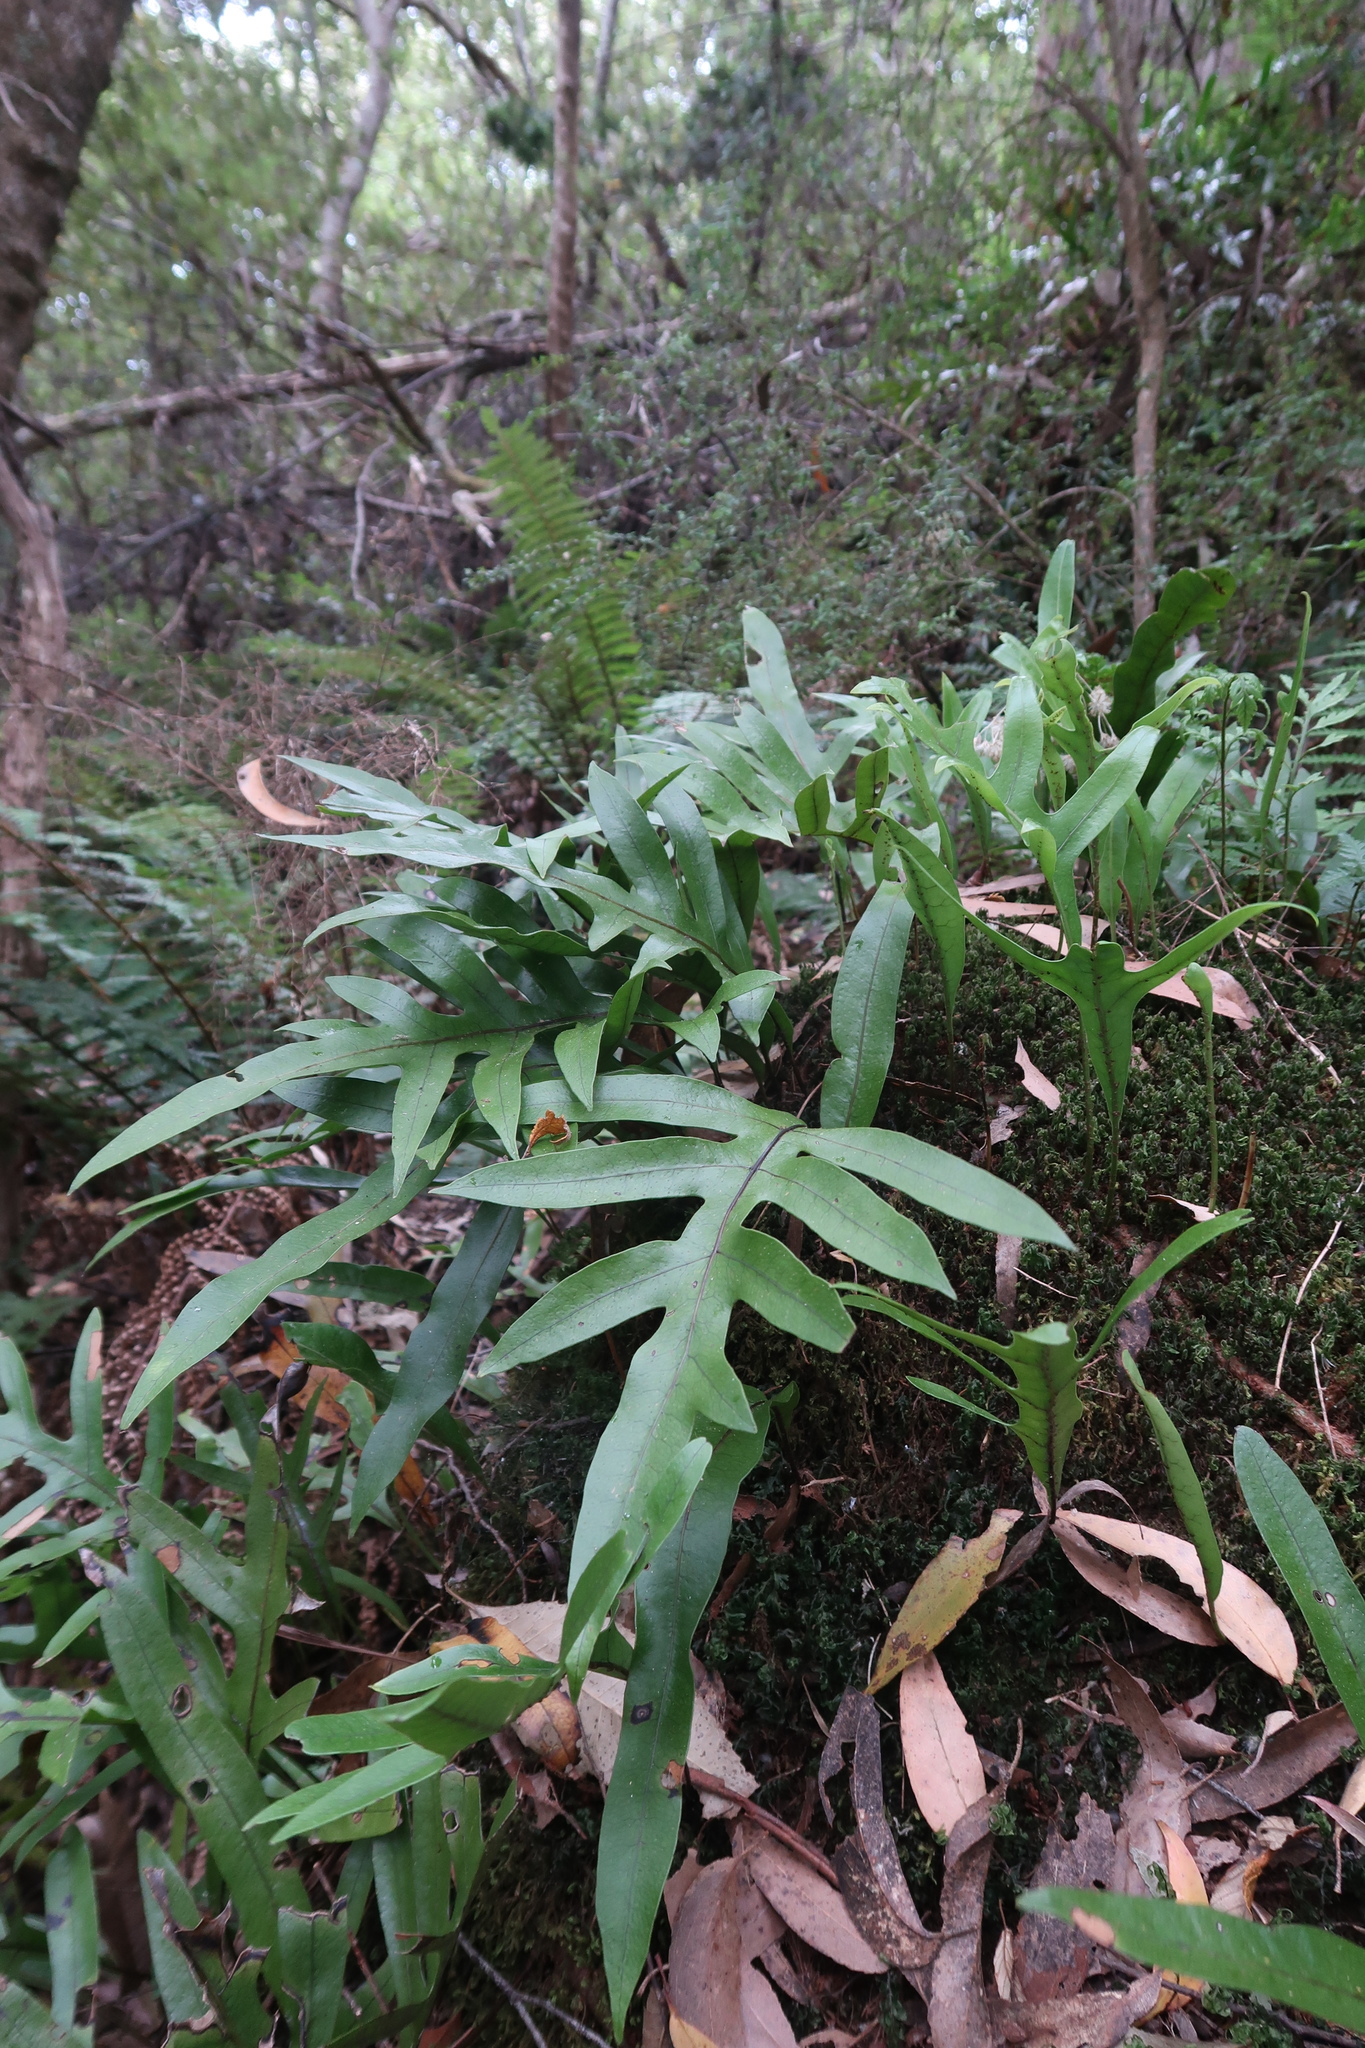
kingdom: Plantae
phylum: Tracheophyta
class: Polypodiopsida
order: Polypodiales
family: Polypodiaceae
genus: Lecanopteris
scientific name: Lecanopteris pustulata
